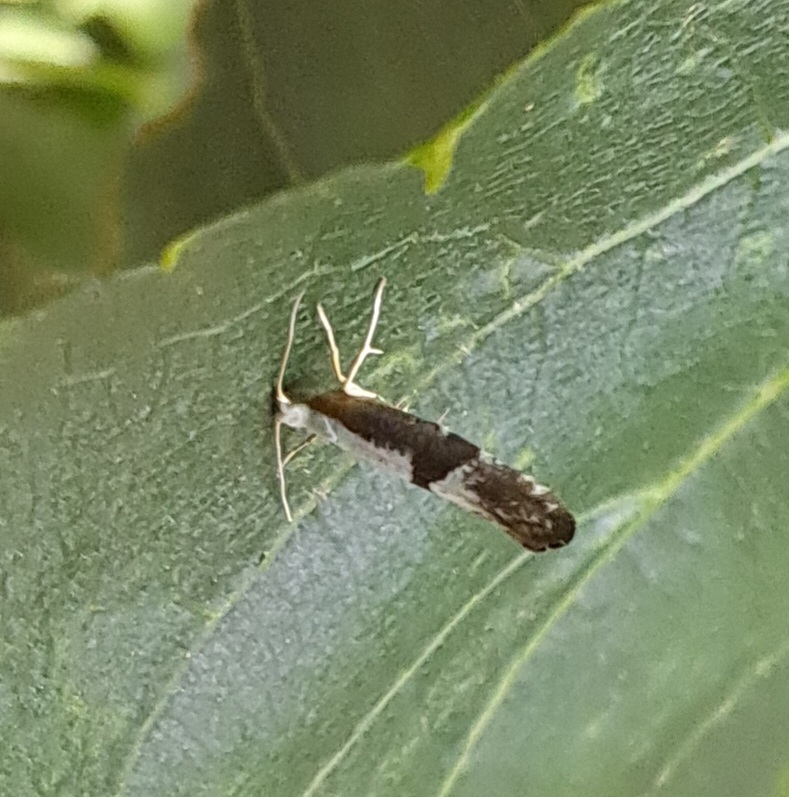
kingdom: Animalia
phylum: Arthropoda
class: Insecta
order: Lepidoptera
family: Argyresthiidae
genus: Argyresthia
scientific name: Argyresthia spinosella
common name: Blackthorn argent
